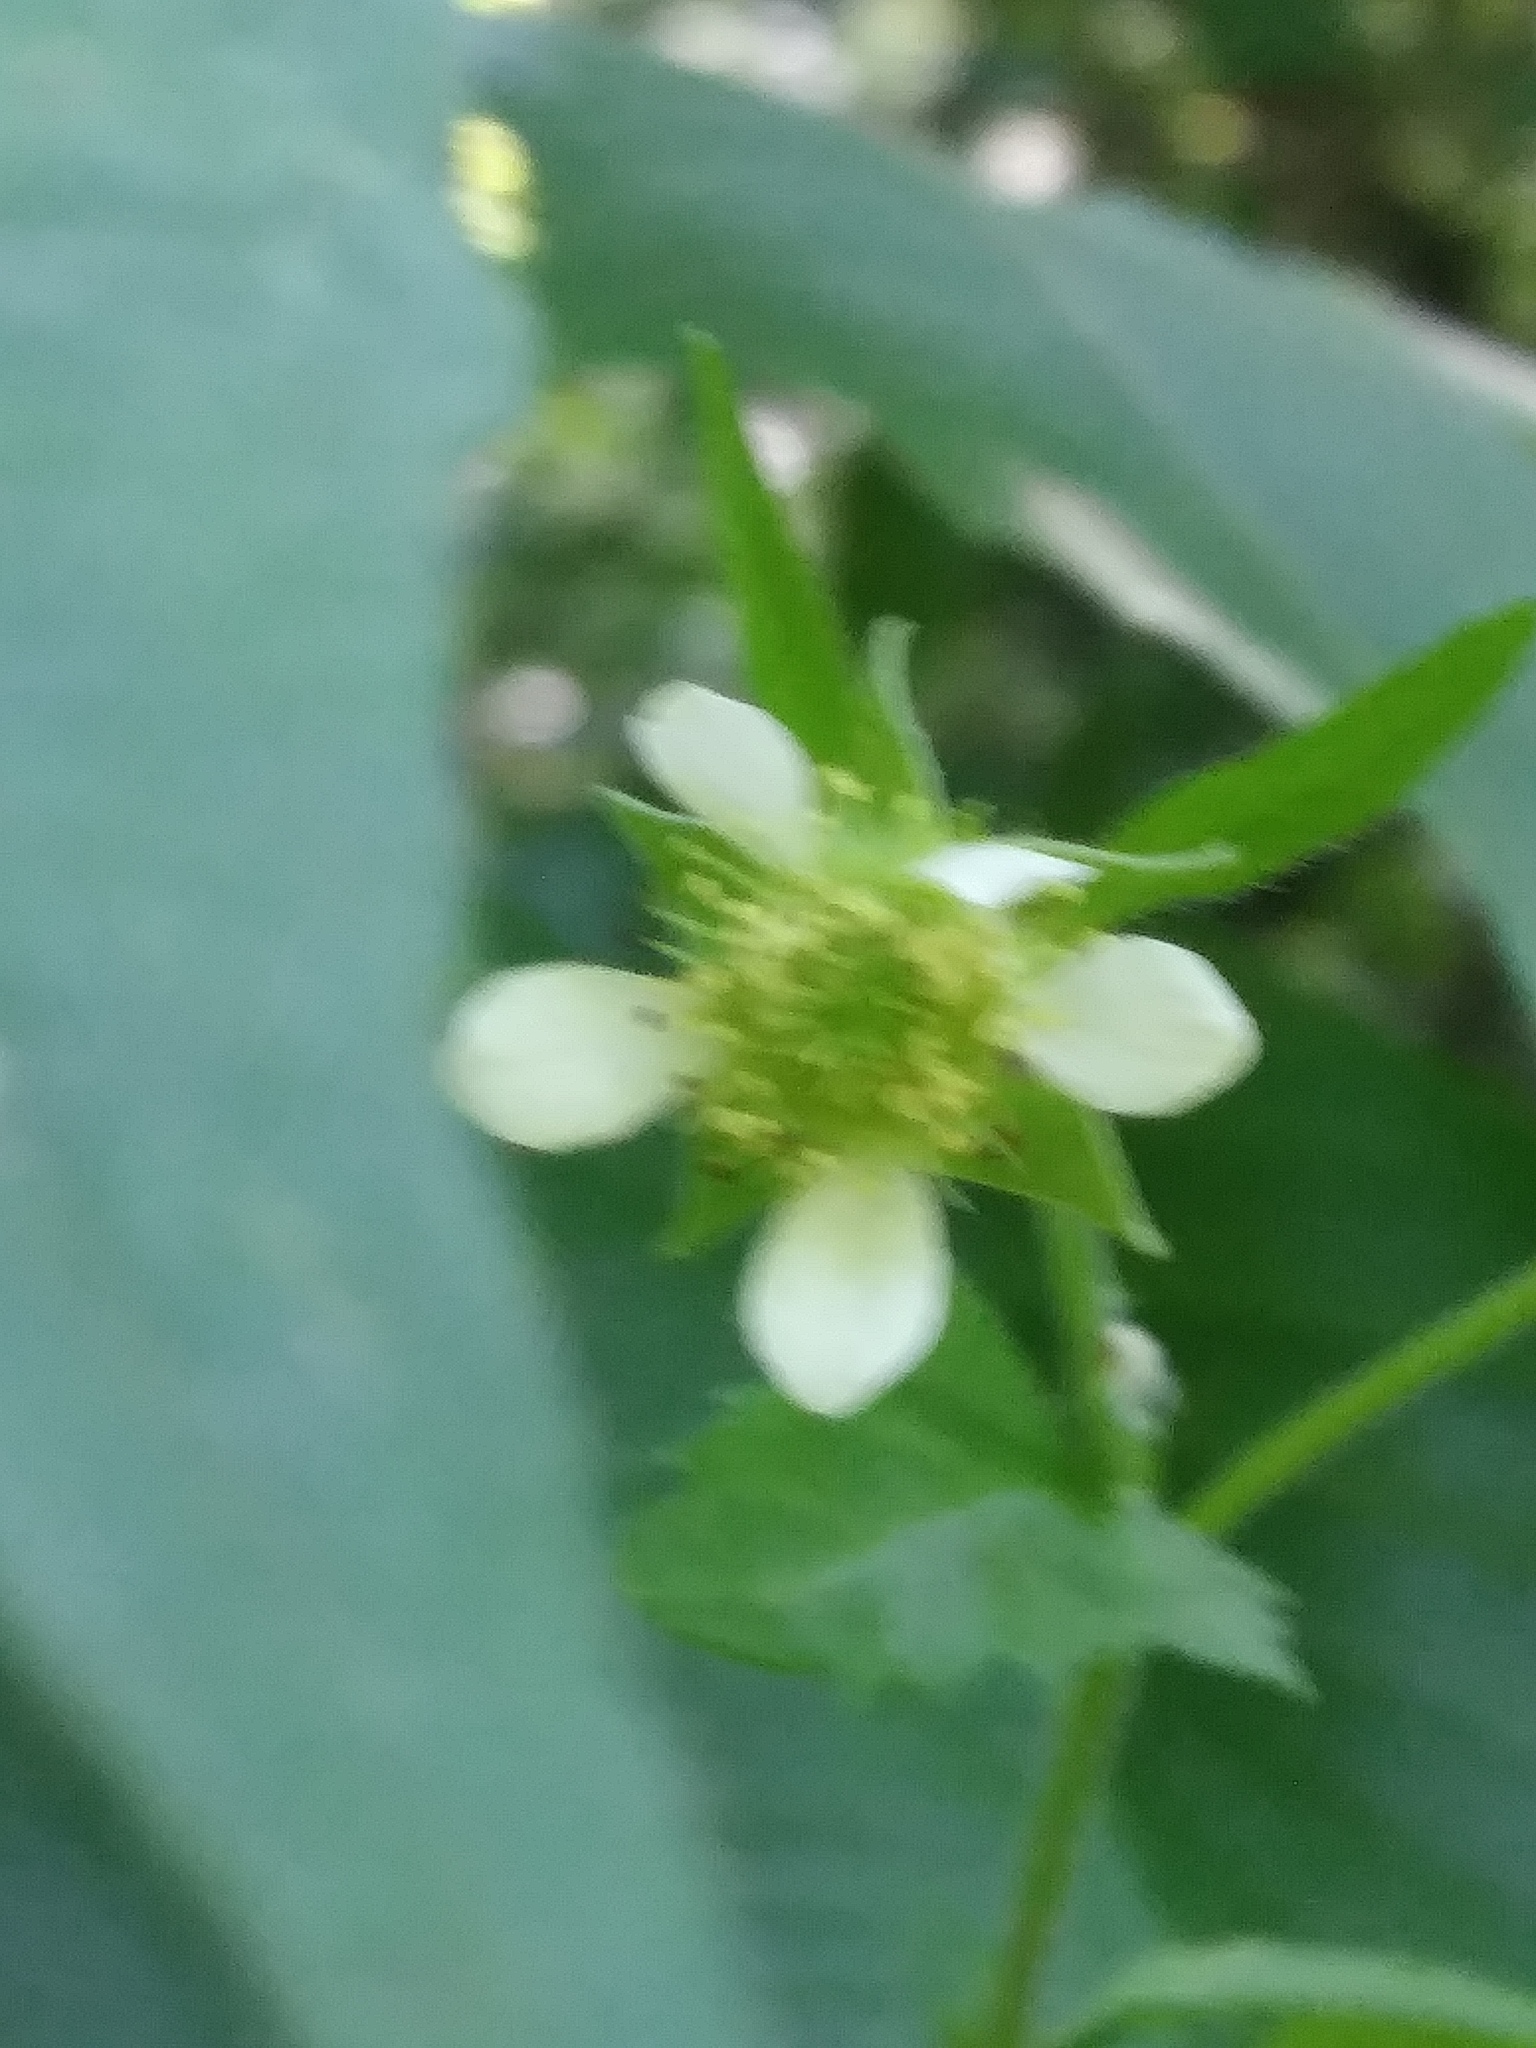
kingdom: Plantae
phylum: Tracheophyta
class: Magnoliopsida
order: Rosales
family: Rosaceae
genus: Geum
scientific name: Geum canadense
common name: White avens
